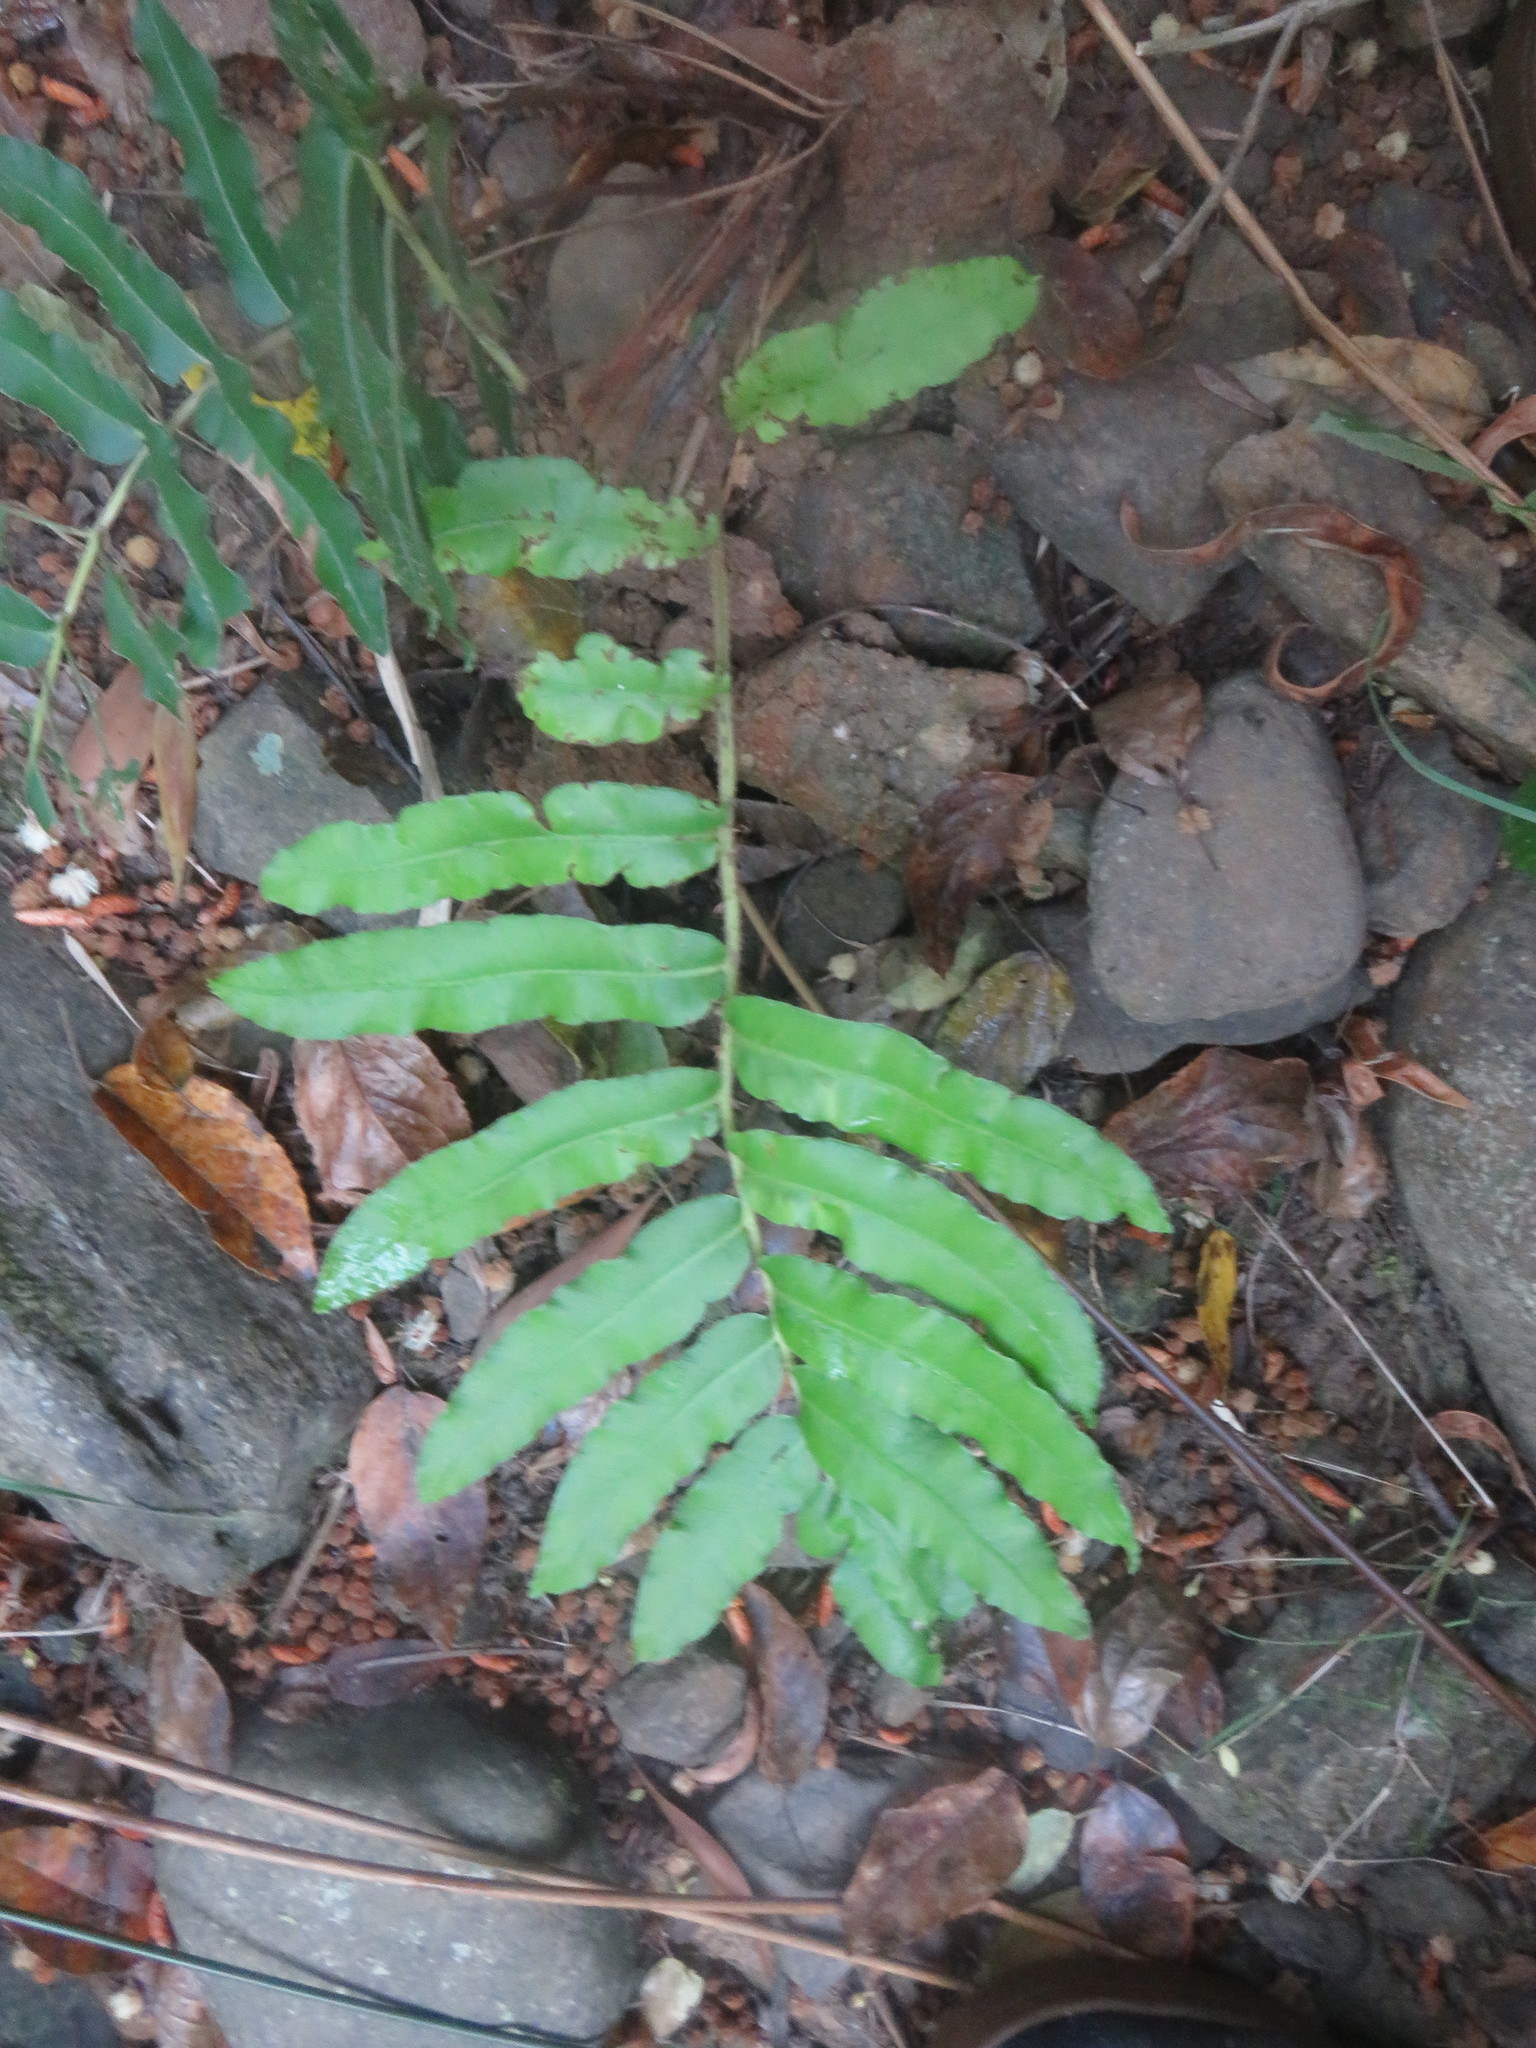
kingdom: Plantae
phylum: Tracheophyta
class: Polypodiopsida
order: Polypodiales
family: Blechnaceae
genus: Parablechnum
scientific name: Parablechnum chilense
